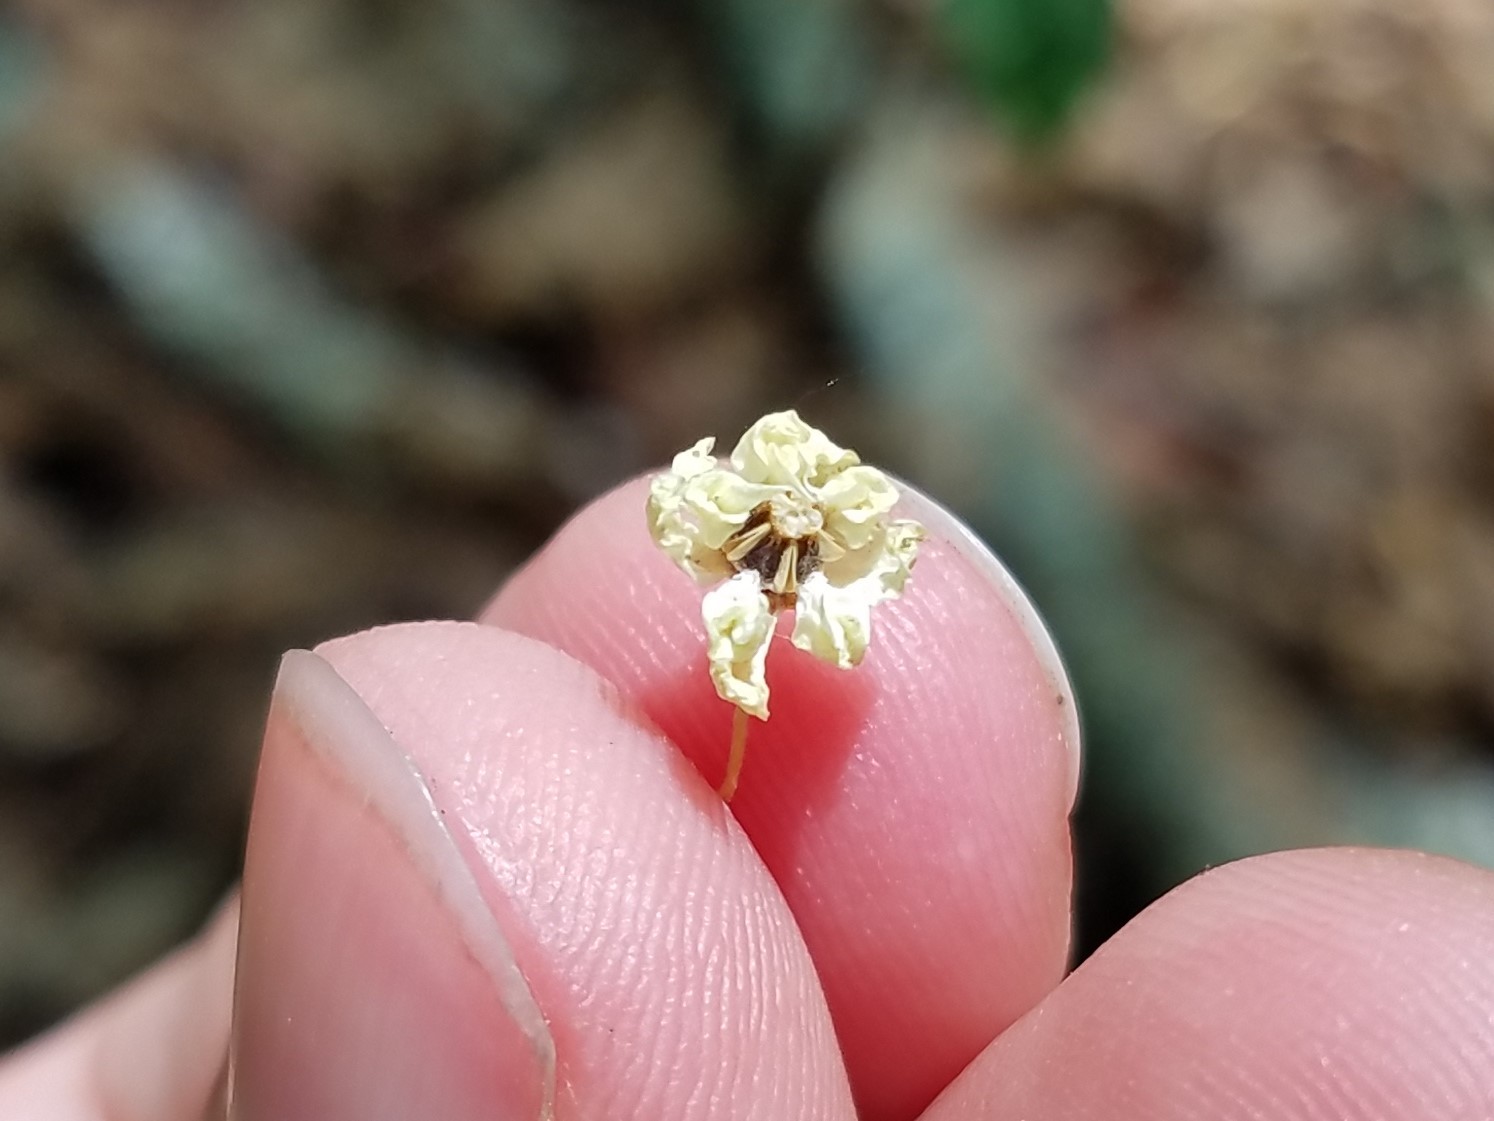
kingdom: Plantae
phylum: Tracheophyta
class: Magnoliopsida
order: Gentianales
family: Apocynaceae
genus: Asclepias
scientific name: Asclepias variegata
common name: Variegated milkweed
